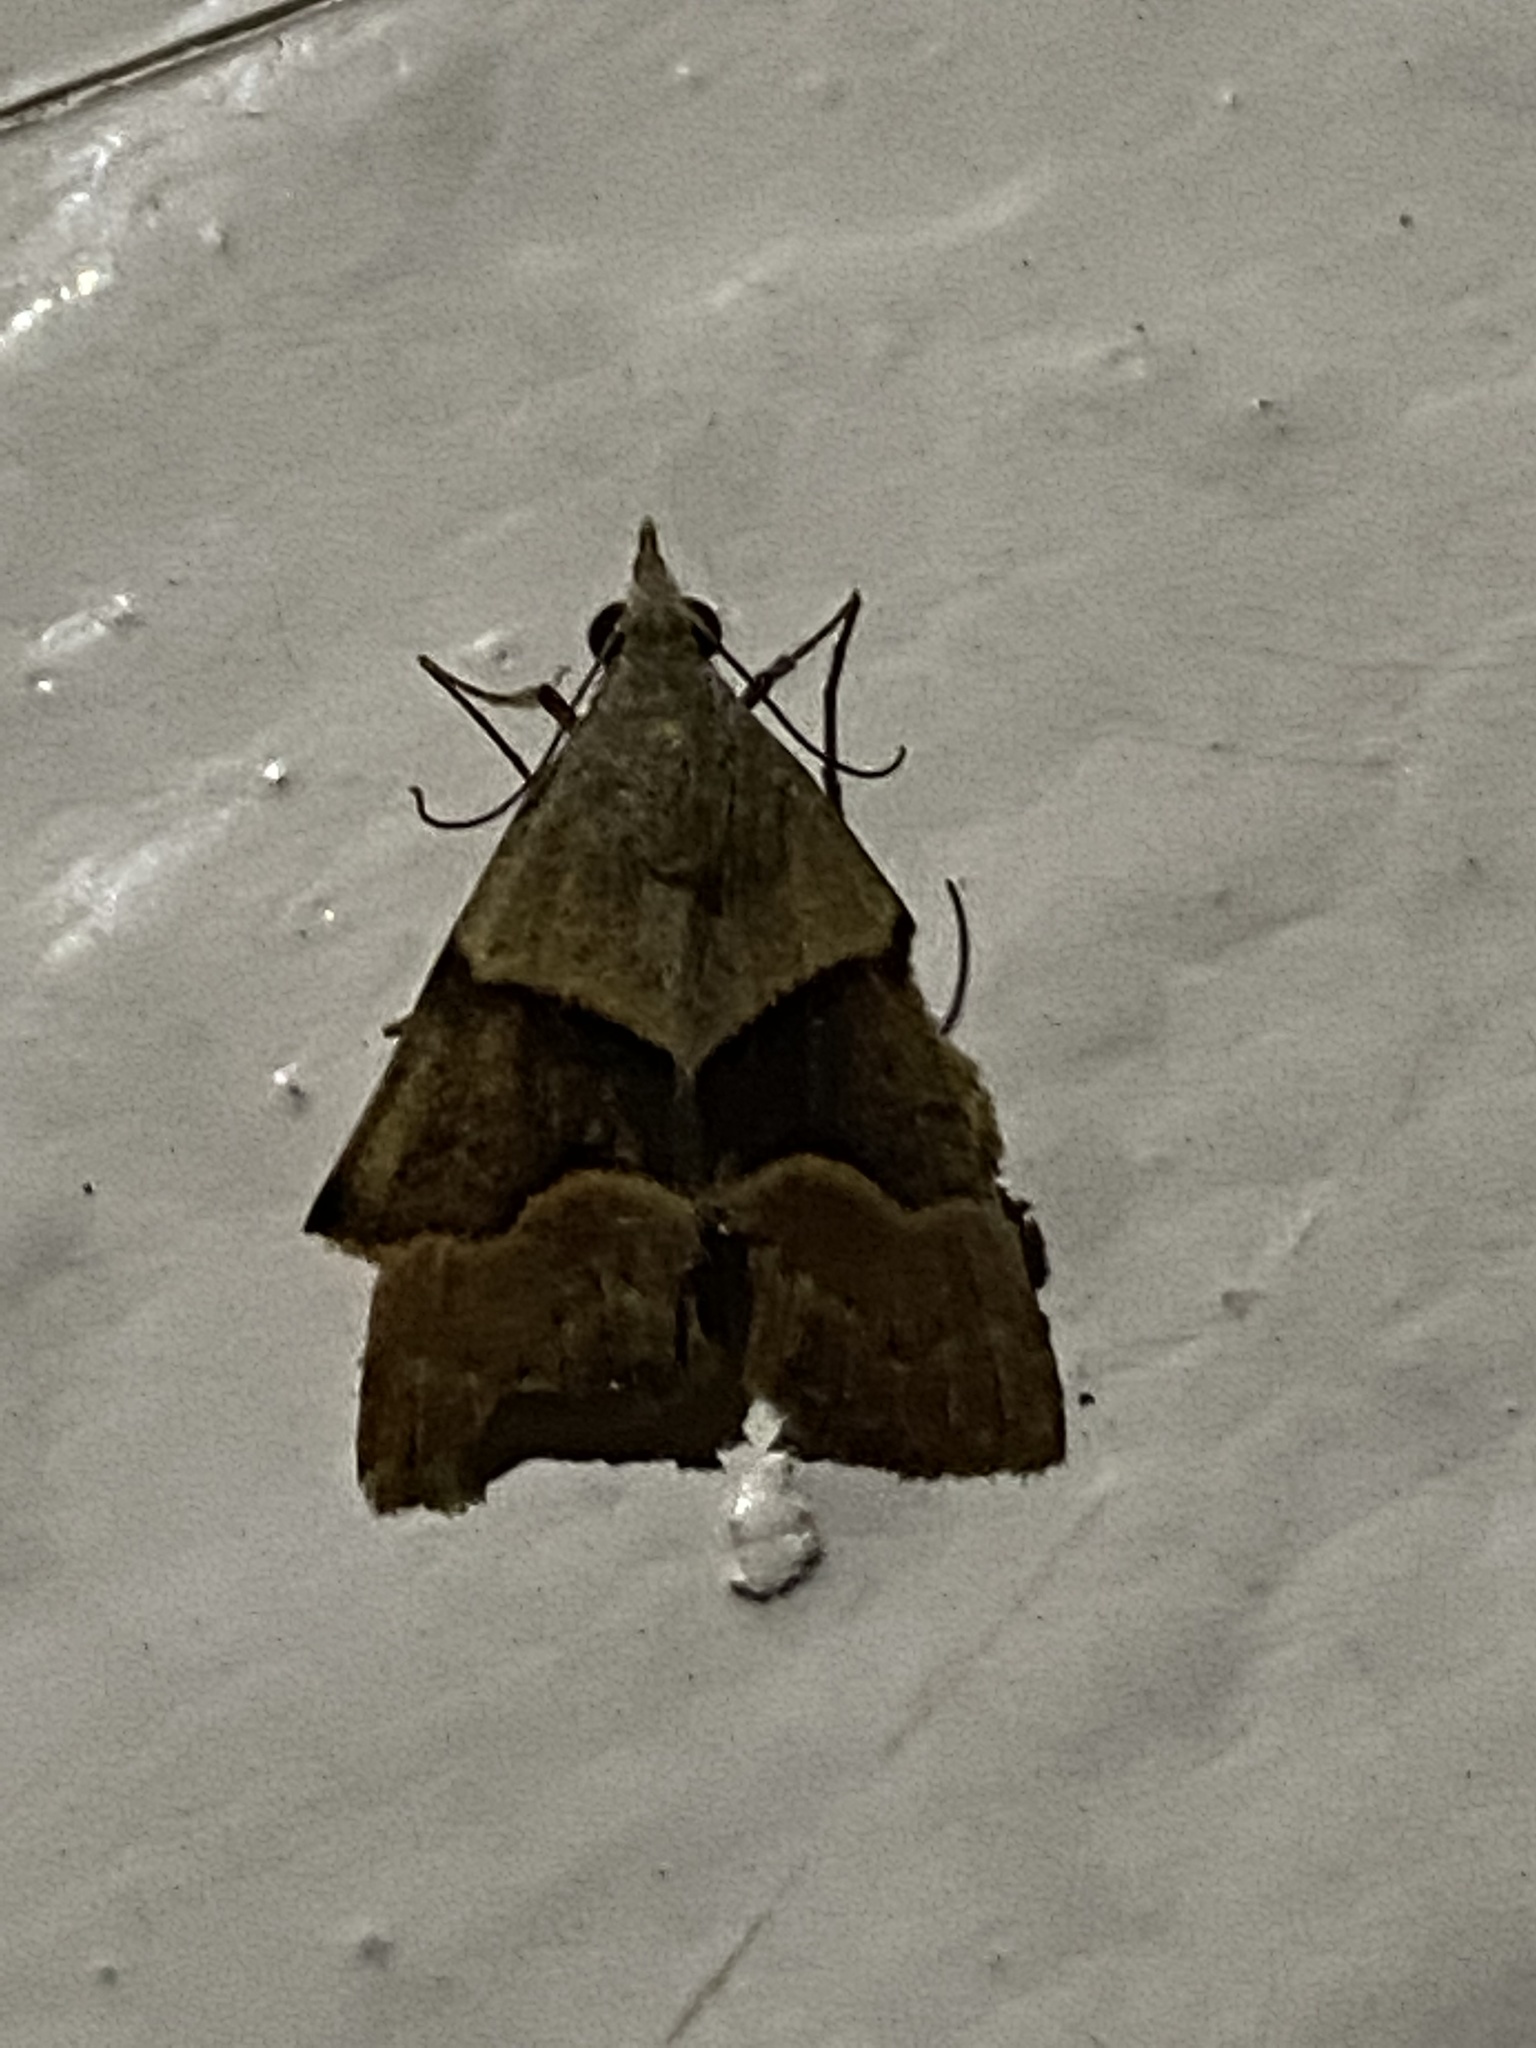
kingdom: Animalia
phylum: Arthropoda
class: Insecta
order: Lepidoptera
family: Erebidae
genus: Hemeroplanis
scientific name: Hemeroplanis incusalis
